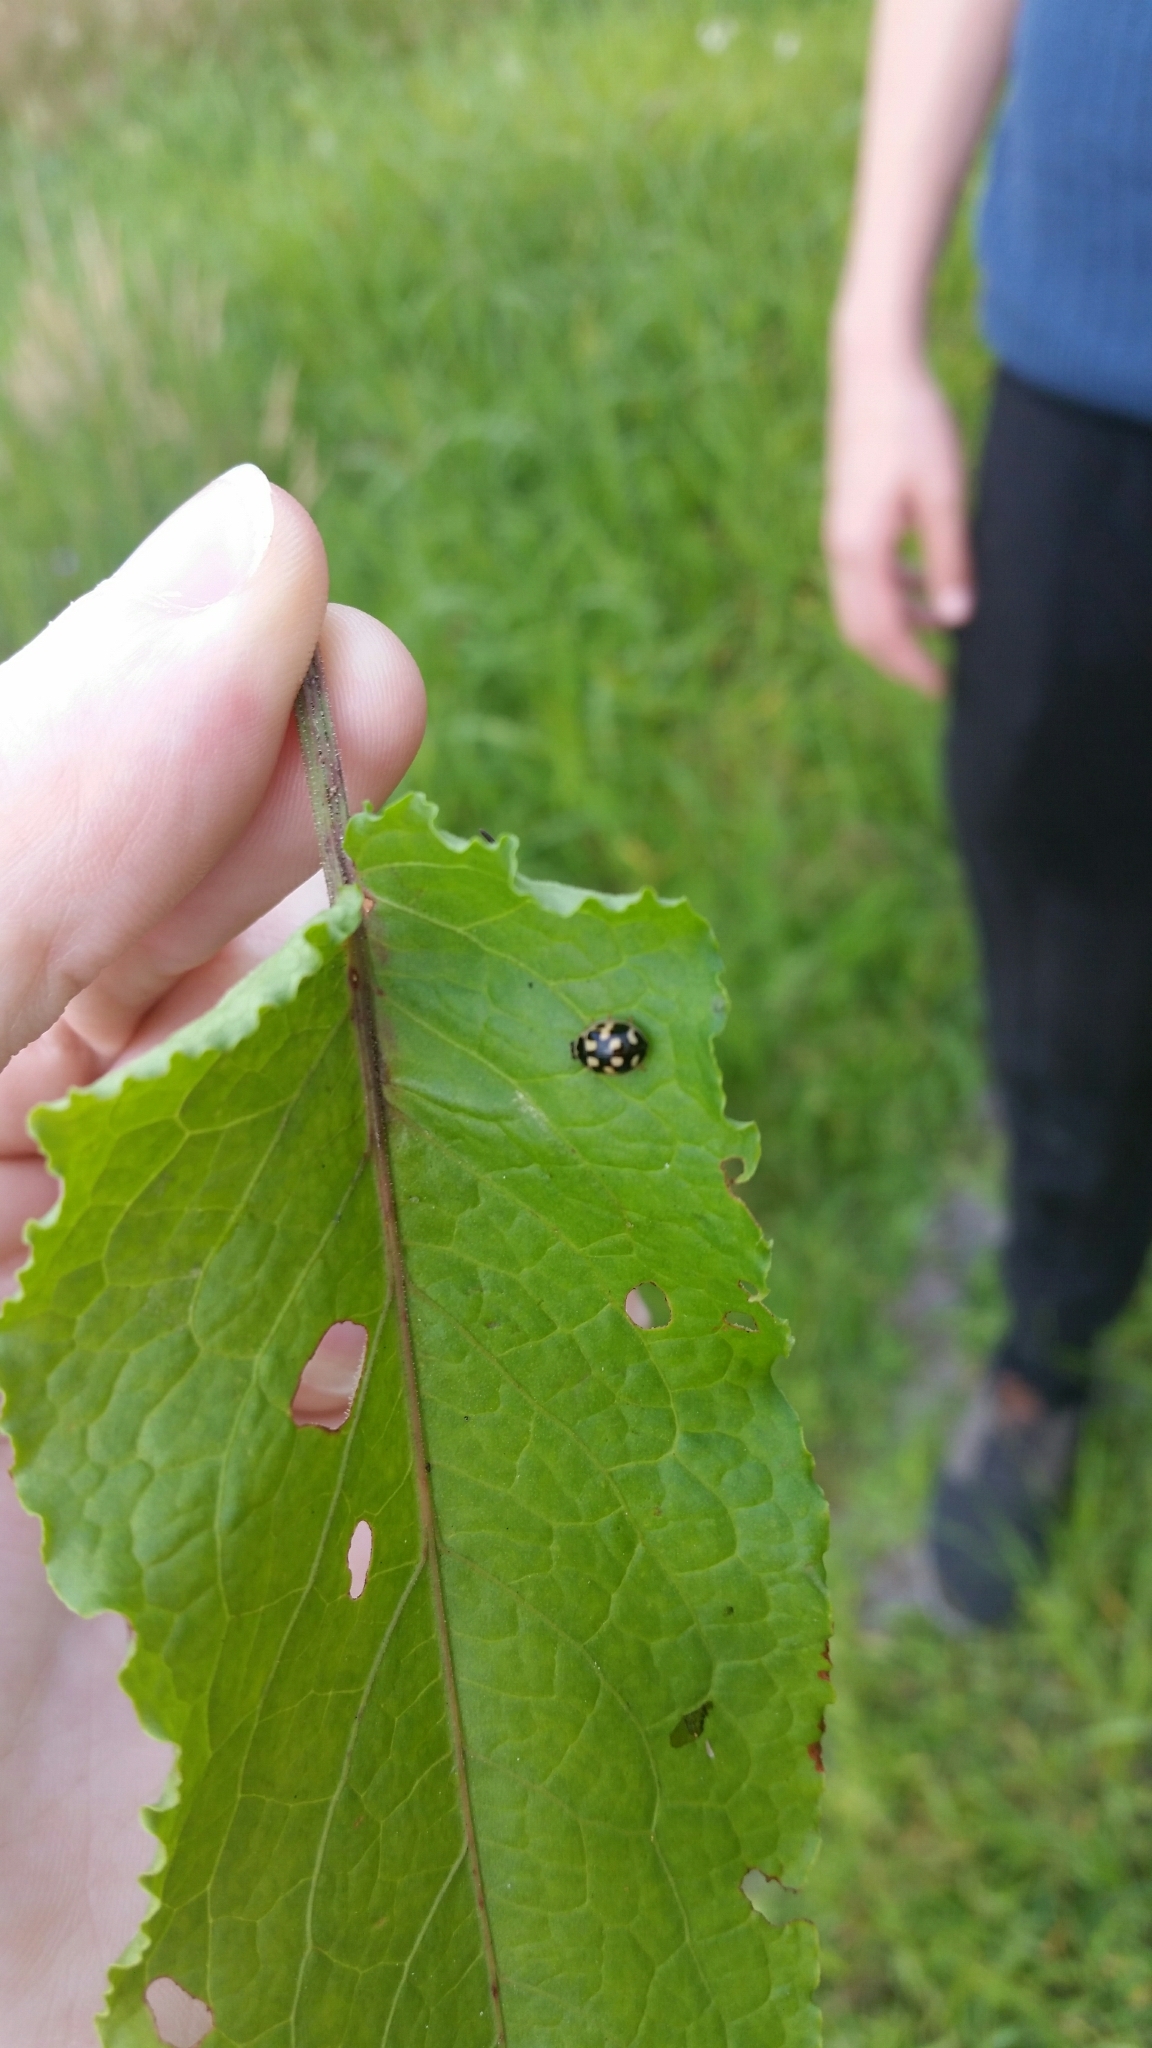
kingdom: Animalia
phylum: Arthropoda
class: Insecta
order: Coleoptera
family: Coccinellidae
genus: Propylaea
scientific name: Propylaea quatuordecimpunctata
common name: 14-spotted ladybird beetle
